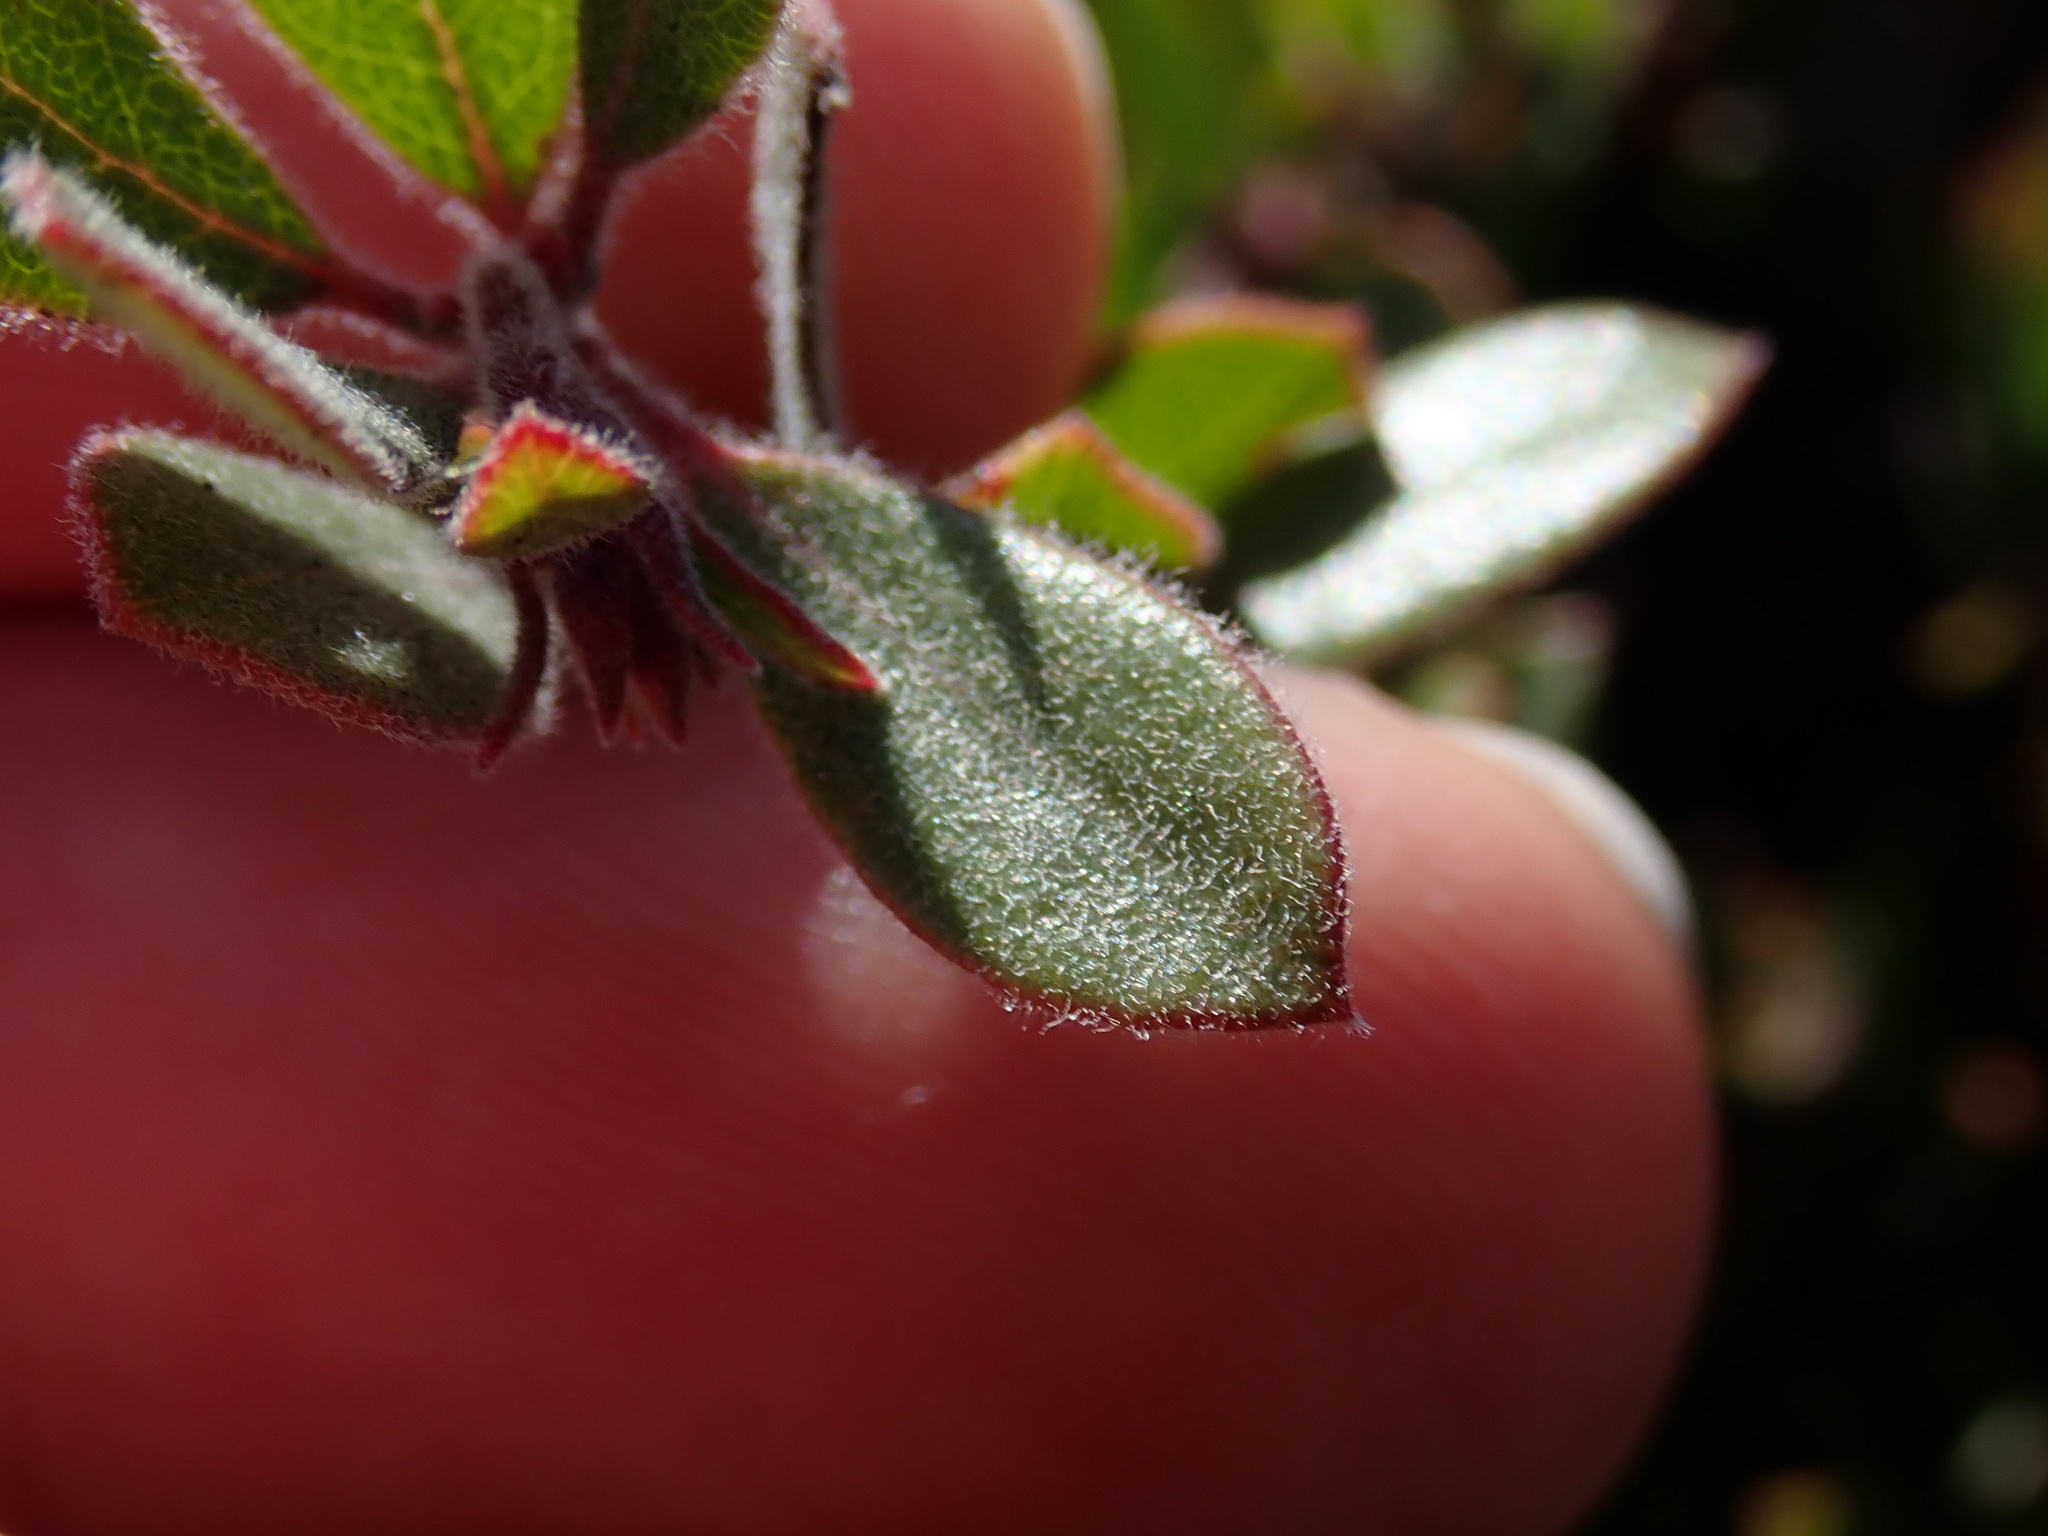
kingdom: Plantae
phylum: Tracheophyta
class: Magnoliopsida
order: Ericales
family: Ericaceae
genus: Arctostaphylos
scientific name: Arctostaphylos pumila
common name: Sandmat manzanita
